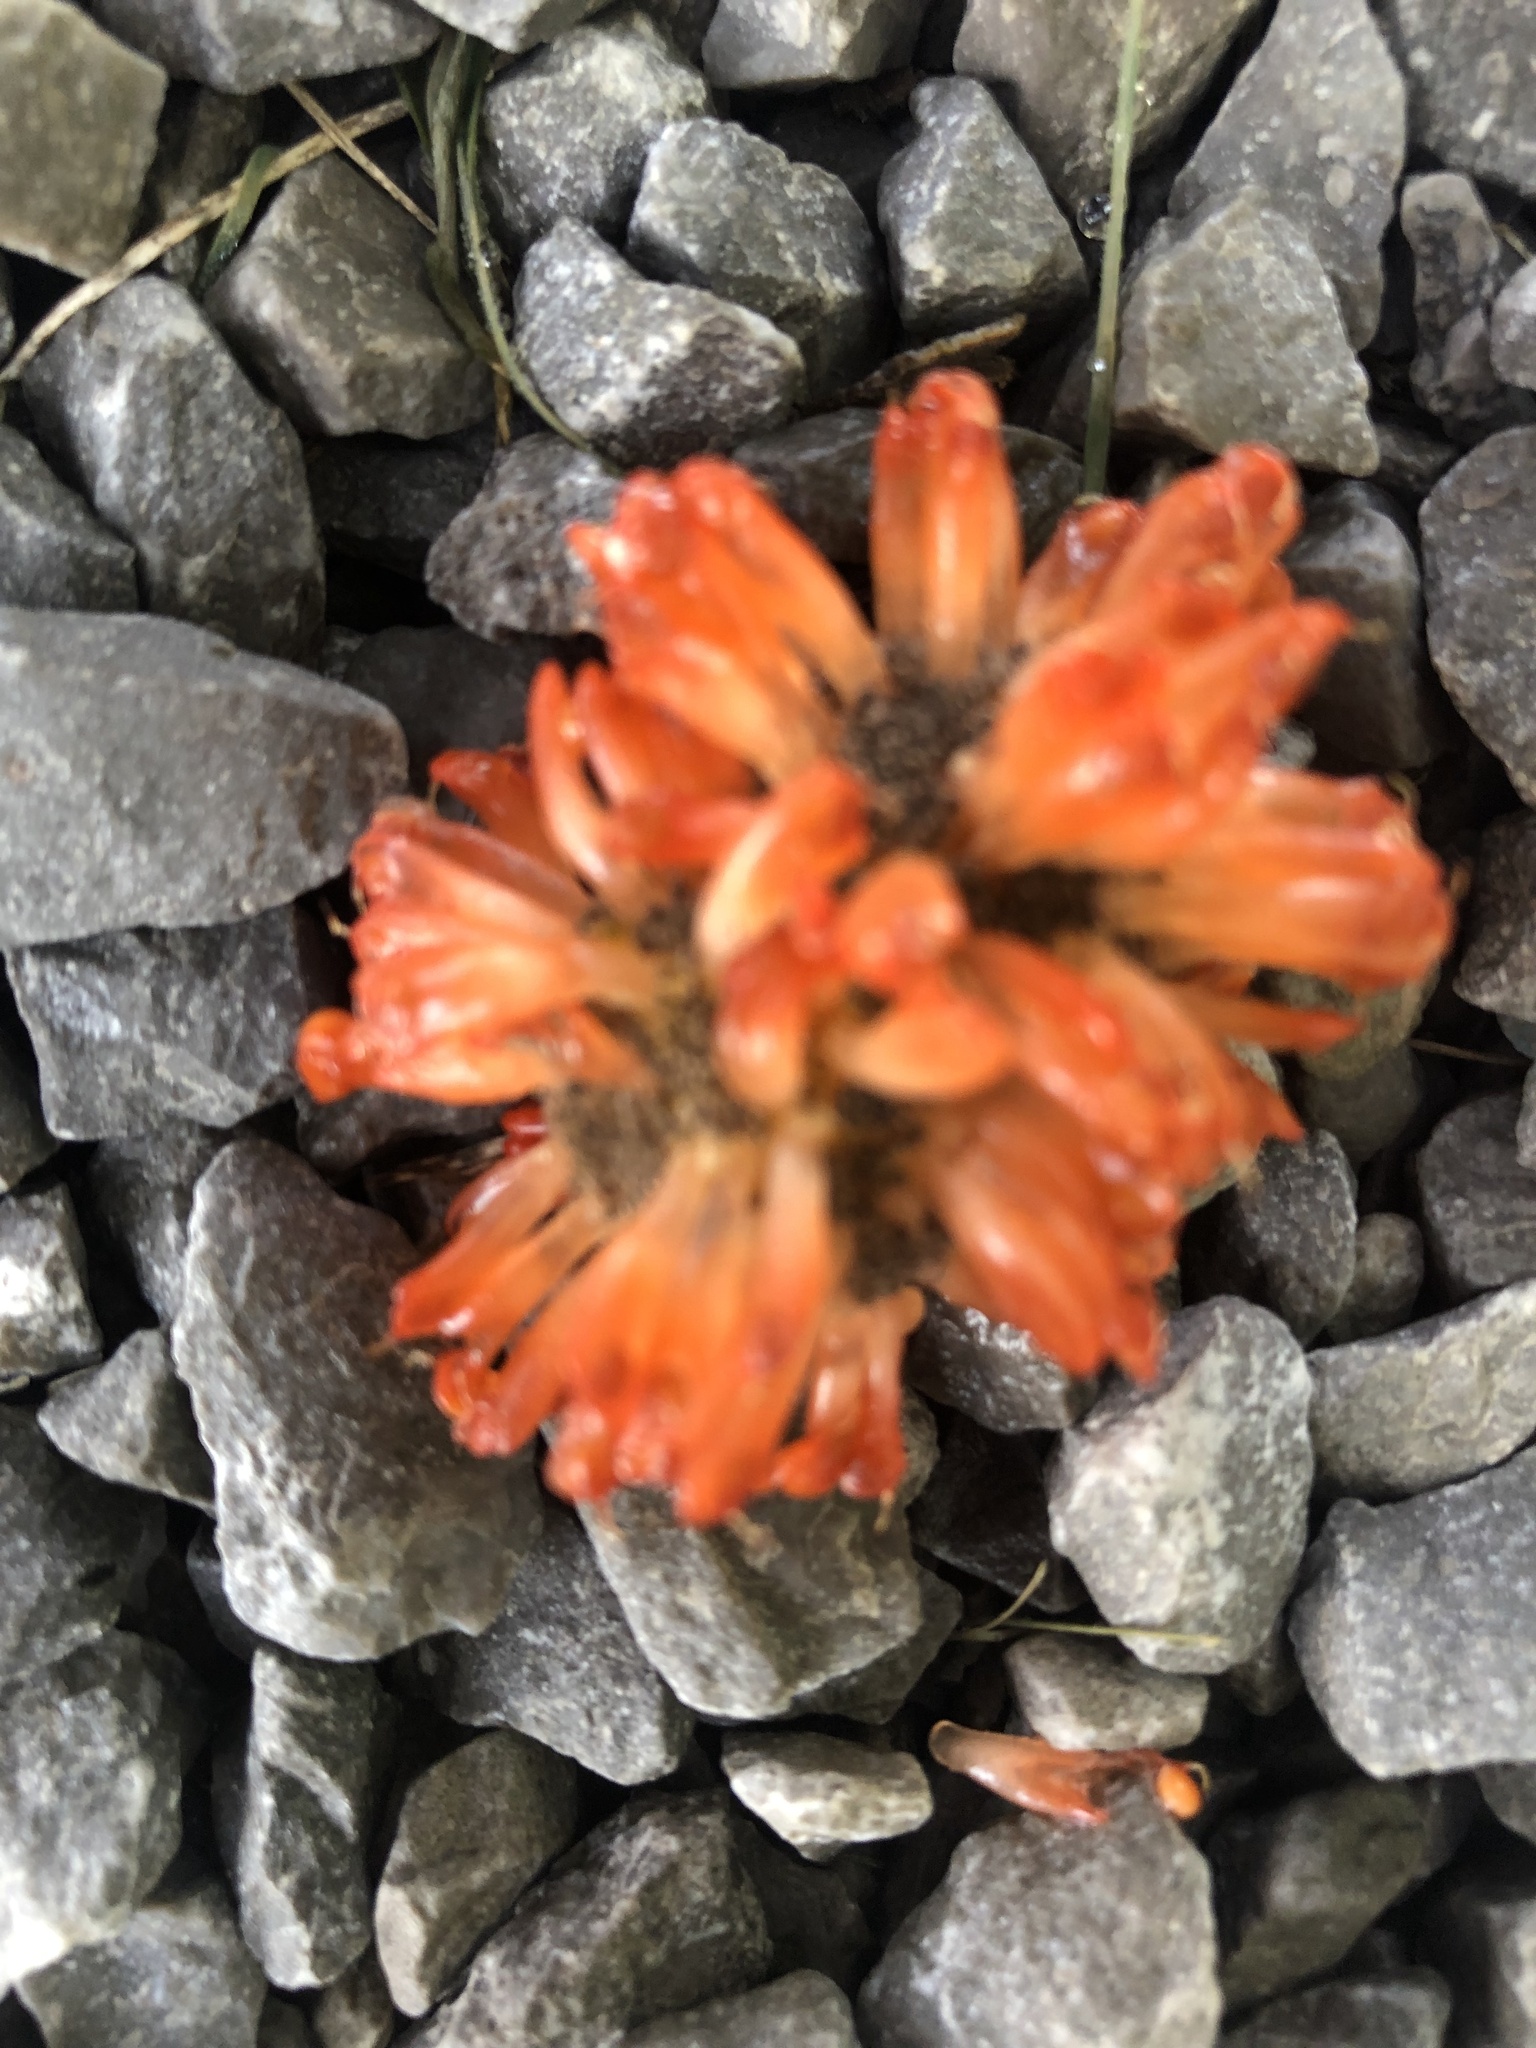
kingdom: Plantae
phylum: Tracheophyta
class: Magnoliopsida
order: Rosales
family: Moraceae
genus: Broussonetia
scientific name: Broussonetia papyrifera
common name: Paper mulberry
